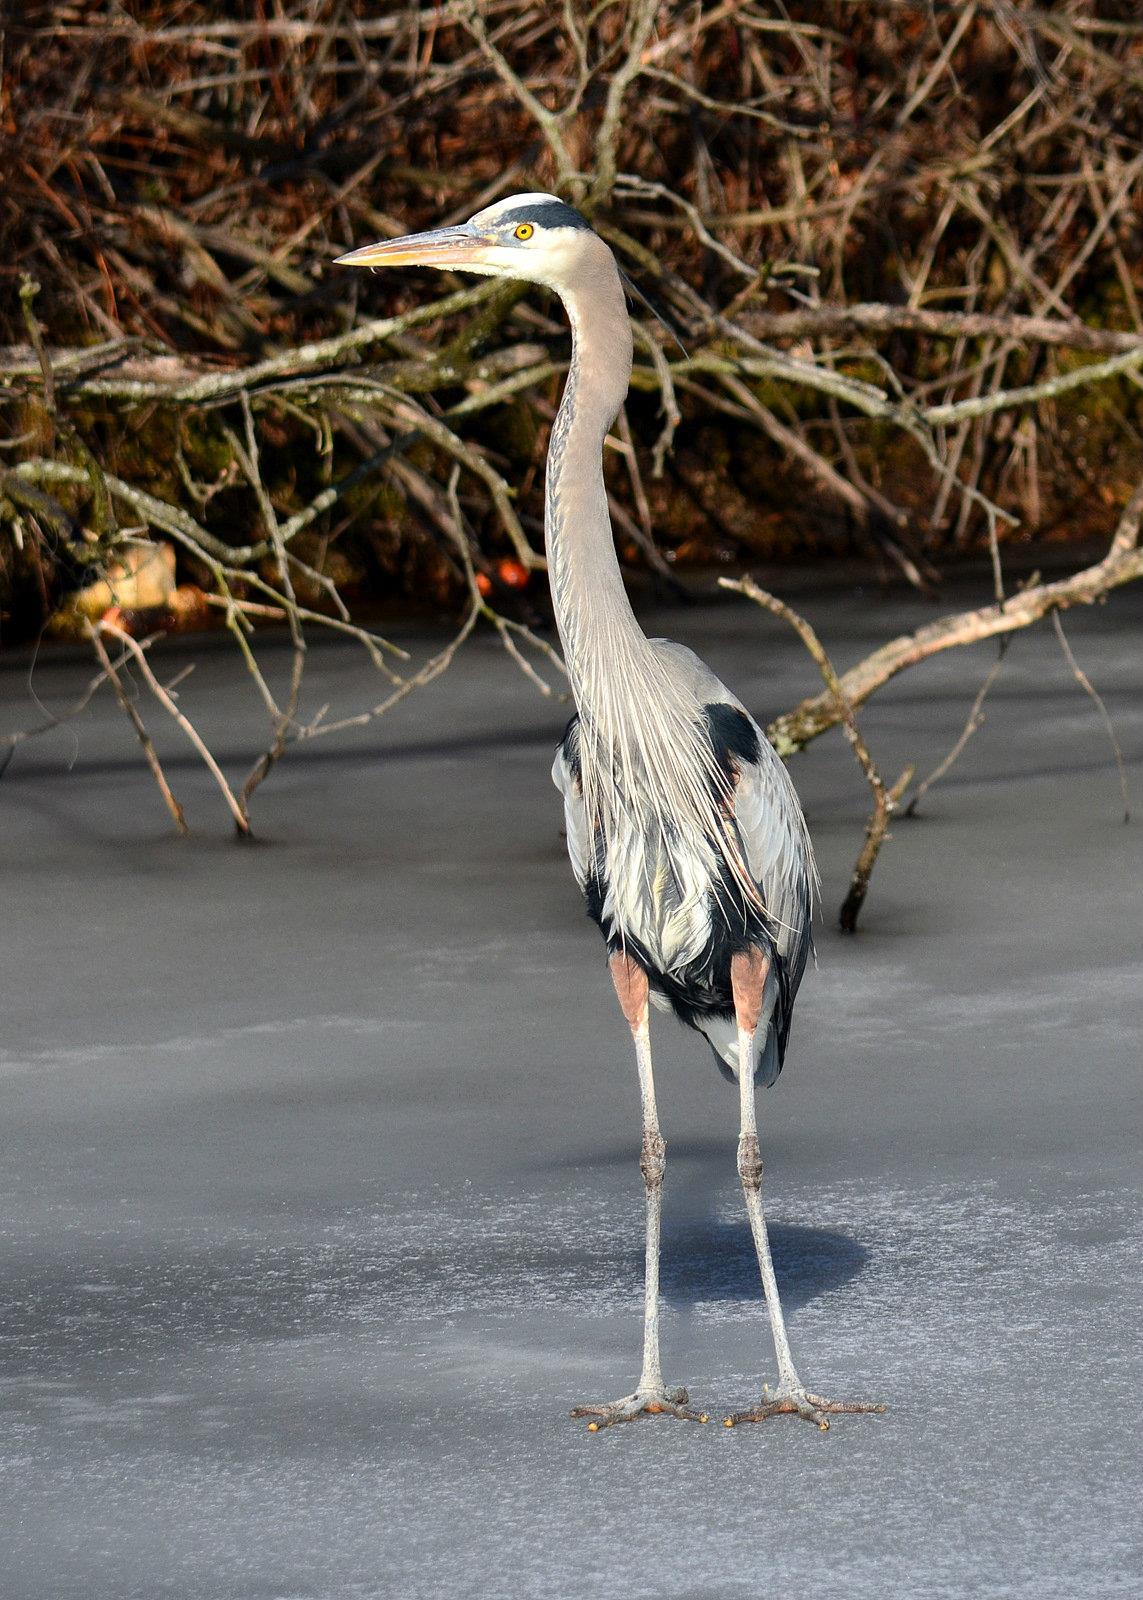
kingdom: Animalia
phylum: Chordata
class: Aves
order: Pelecaniformes
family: Ardeidae
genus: Ardea
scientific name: Ardea herodias
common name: Great blue heron
